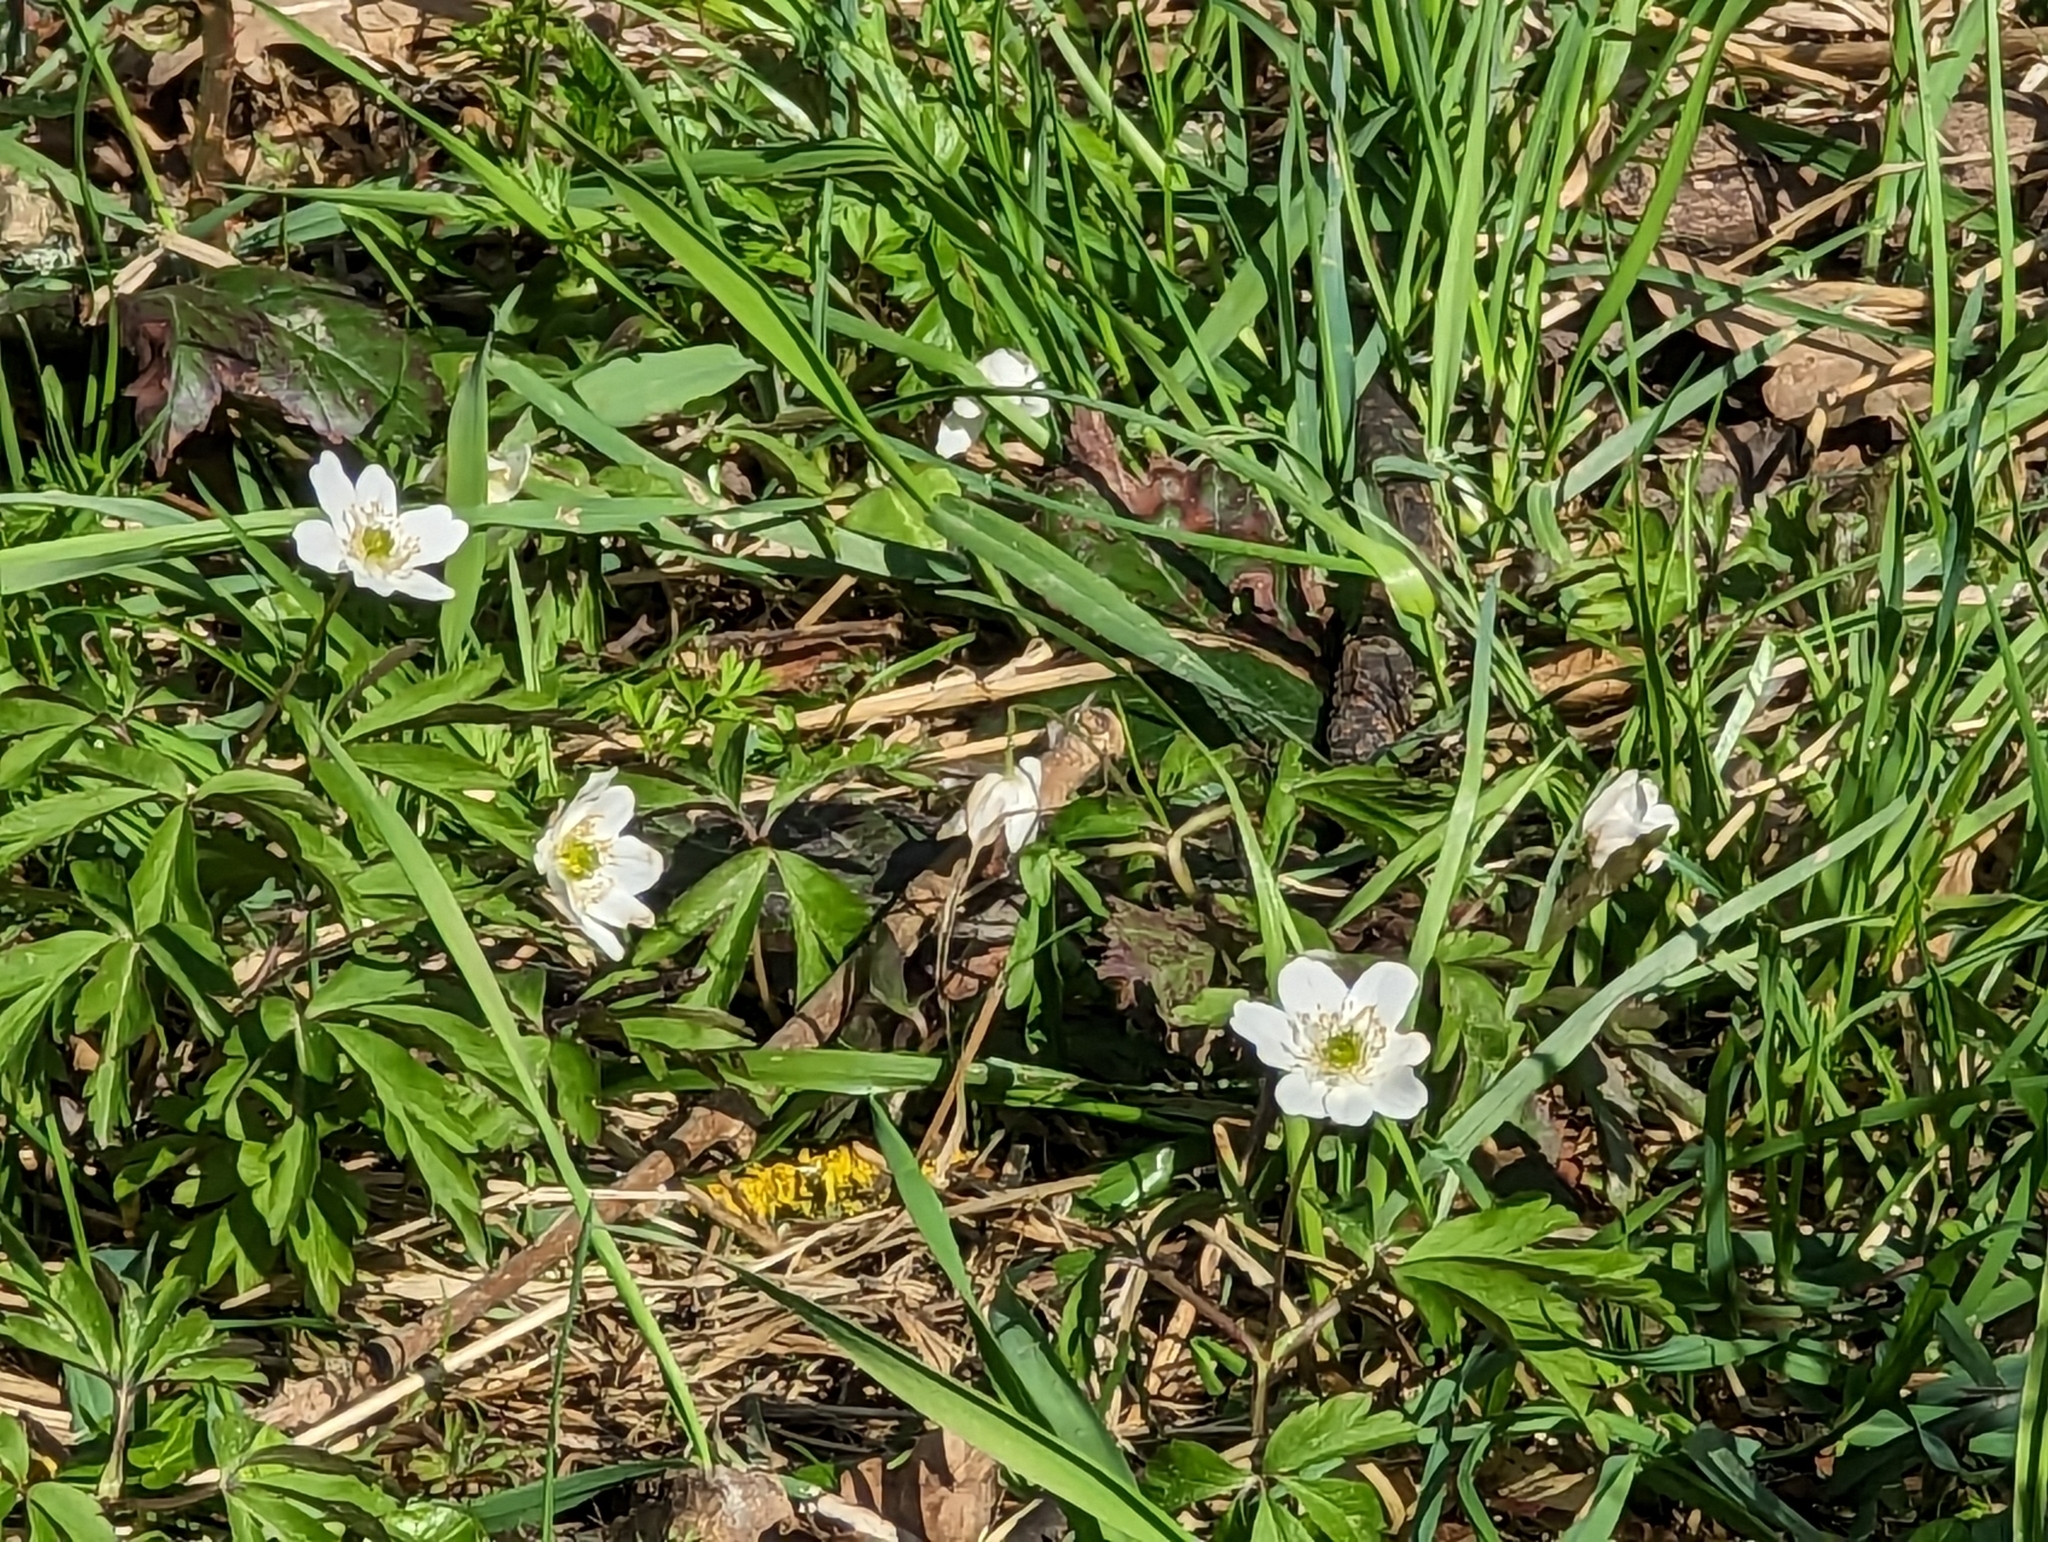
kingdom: Plantae
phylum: Tracheophyta
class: Magnoliopsida
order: Ranunculales
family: Ranunculaceae
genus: Anemone
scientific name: Anemone nemorosa
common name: Wood anemone
